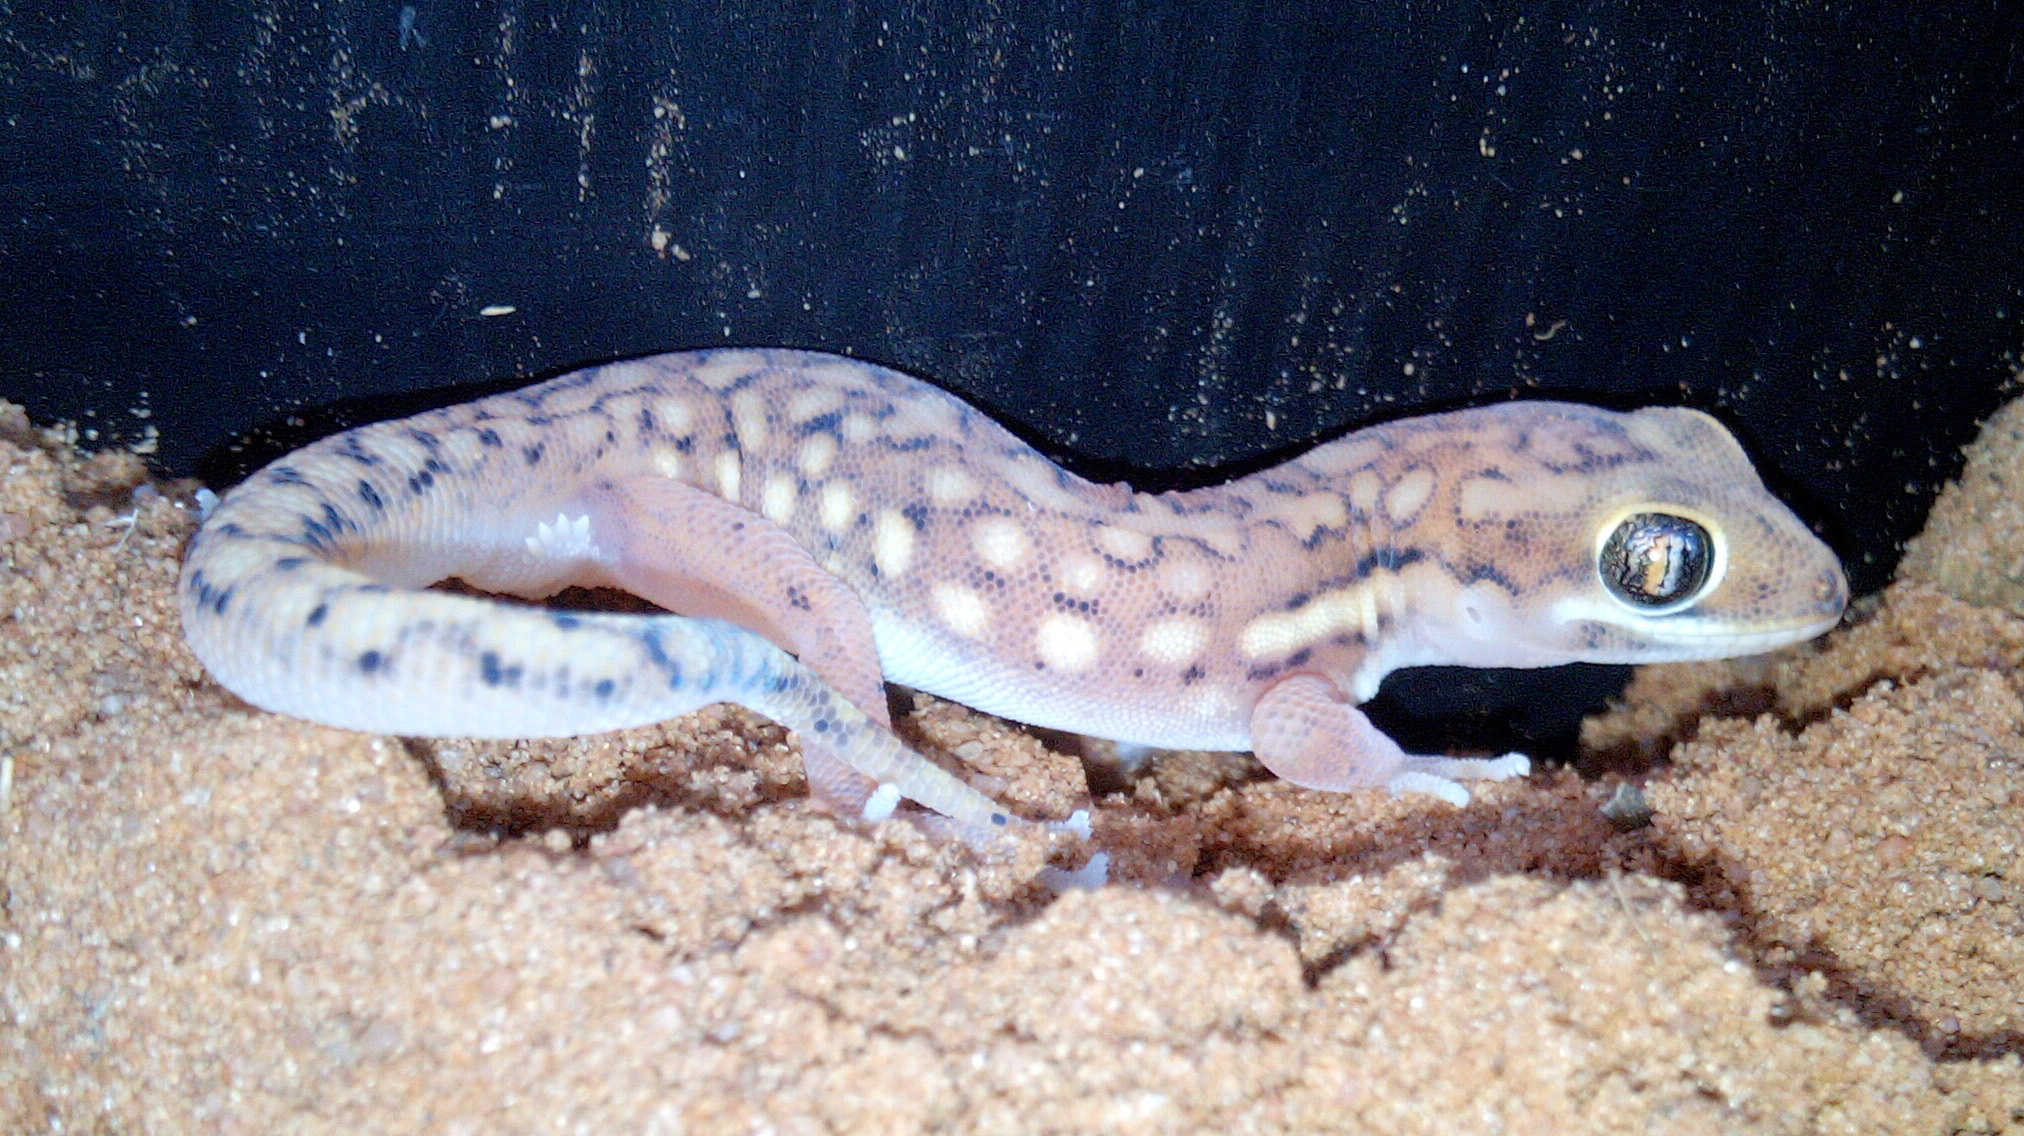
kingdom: Animalia
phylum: Chordata
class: Squamata
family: Gekkonidae
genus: Pachydactylus
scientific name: Pachydactylus wahlbergii
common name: Kalahari ground gecko
